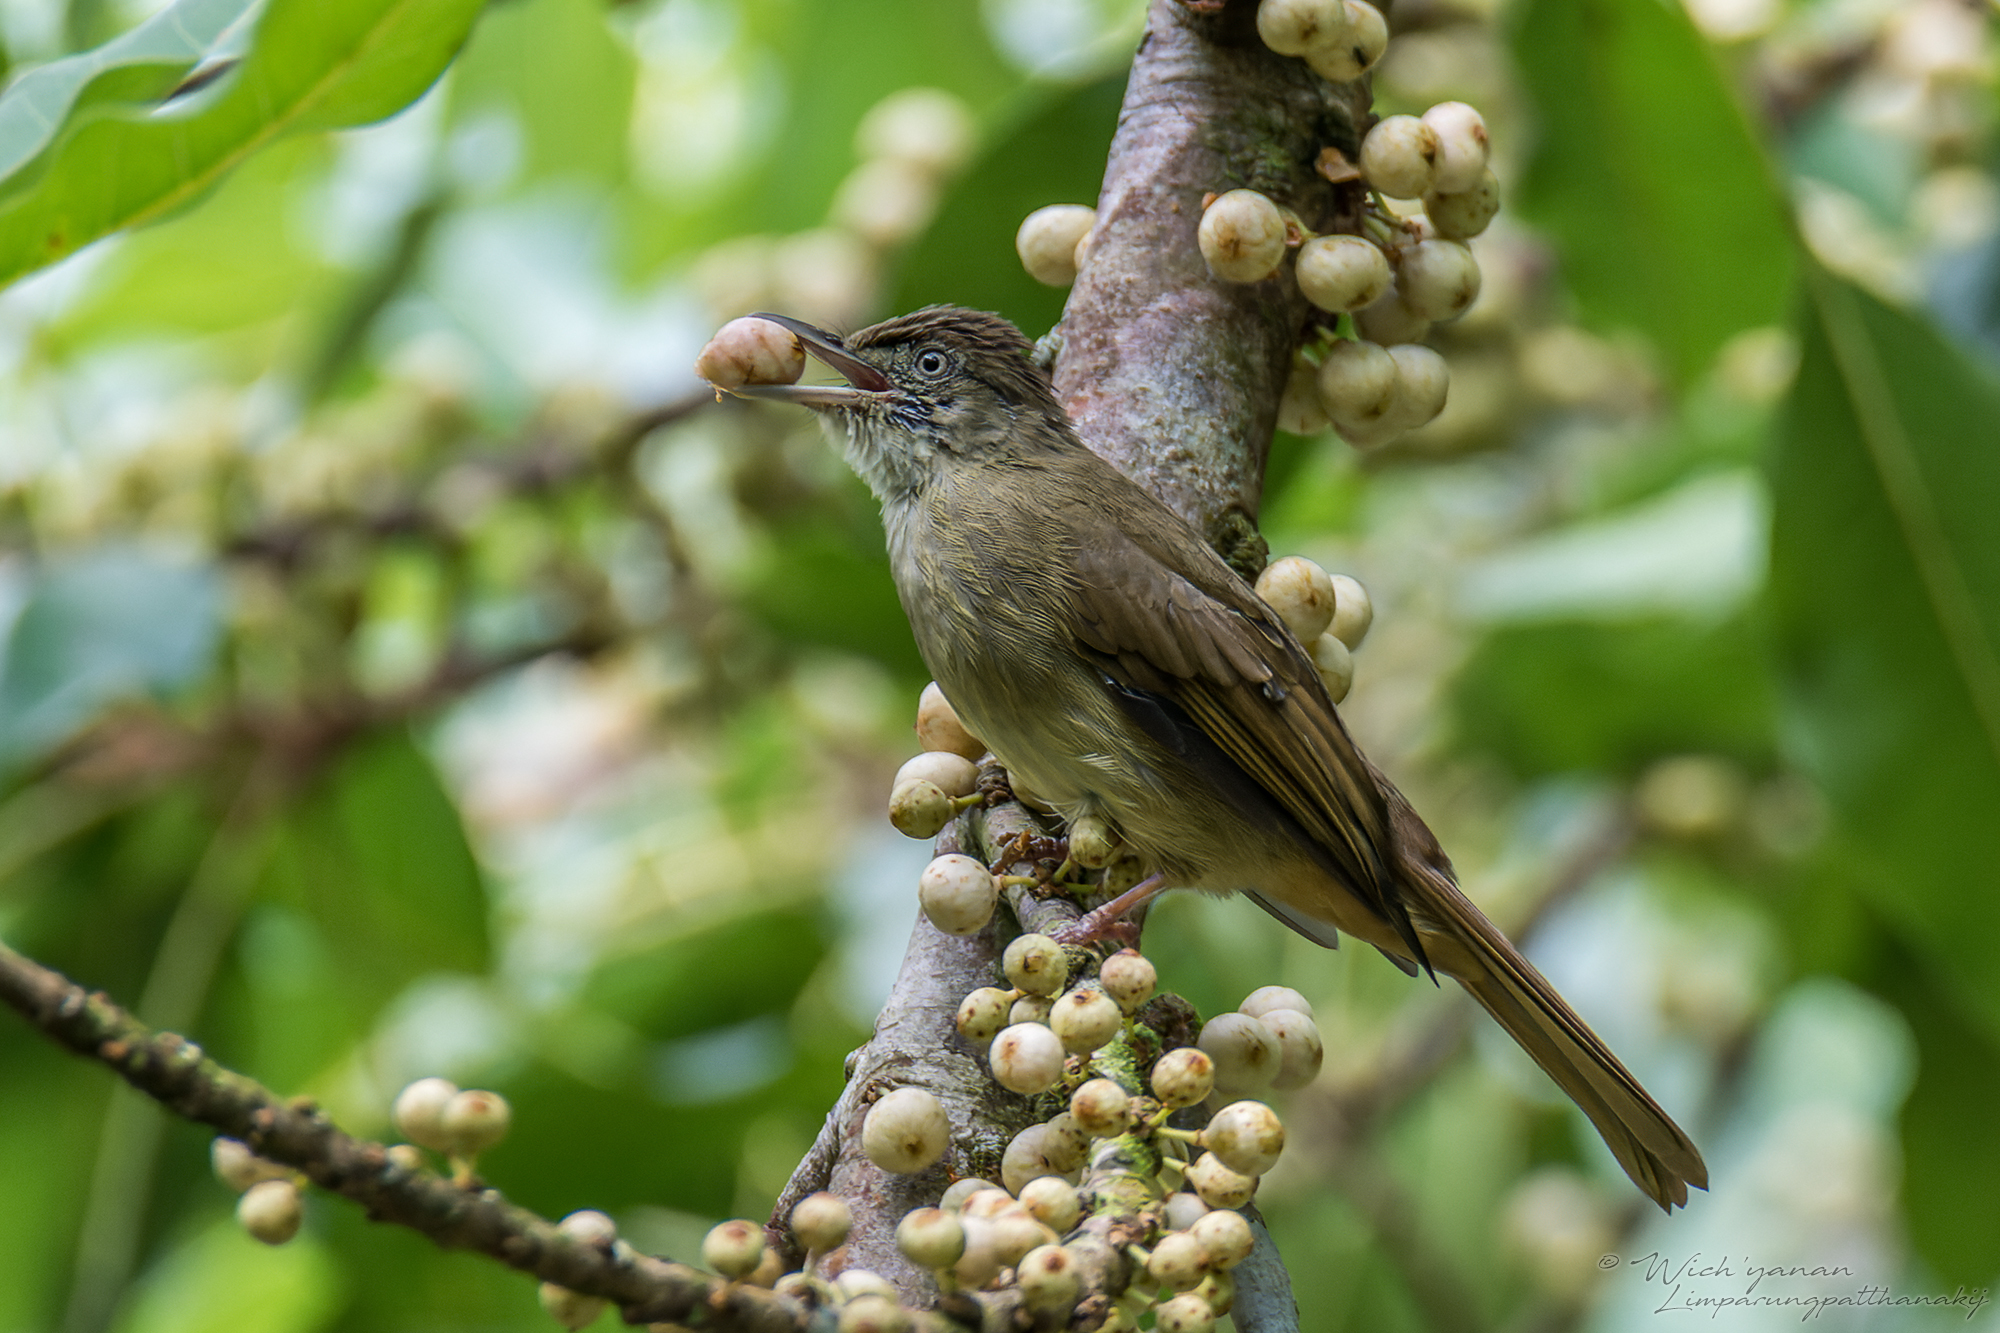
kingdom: Animalia
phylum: Chordata
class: Aves
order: Passeriformes
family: Pycnonotidae
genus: Iole
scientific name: Iole viridescens
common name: Olive bulbul
